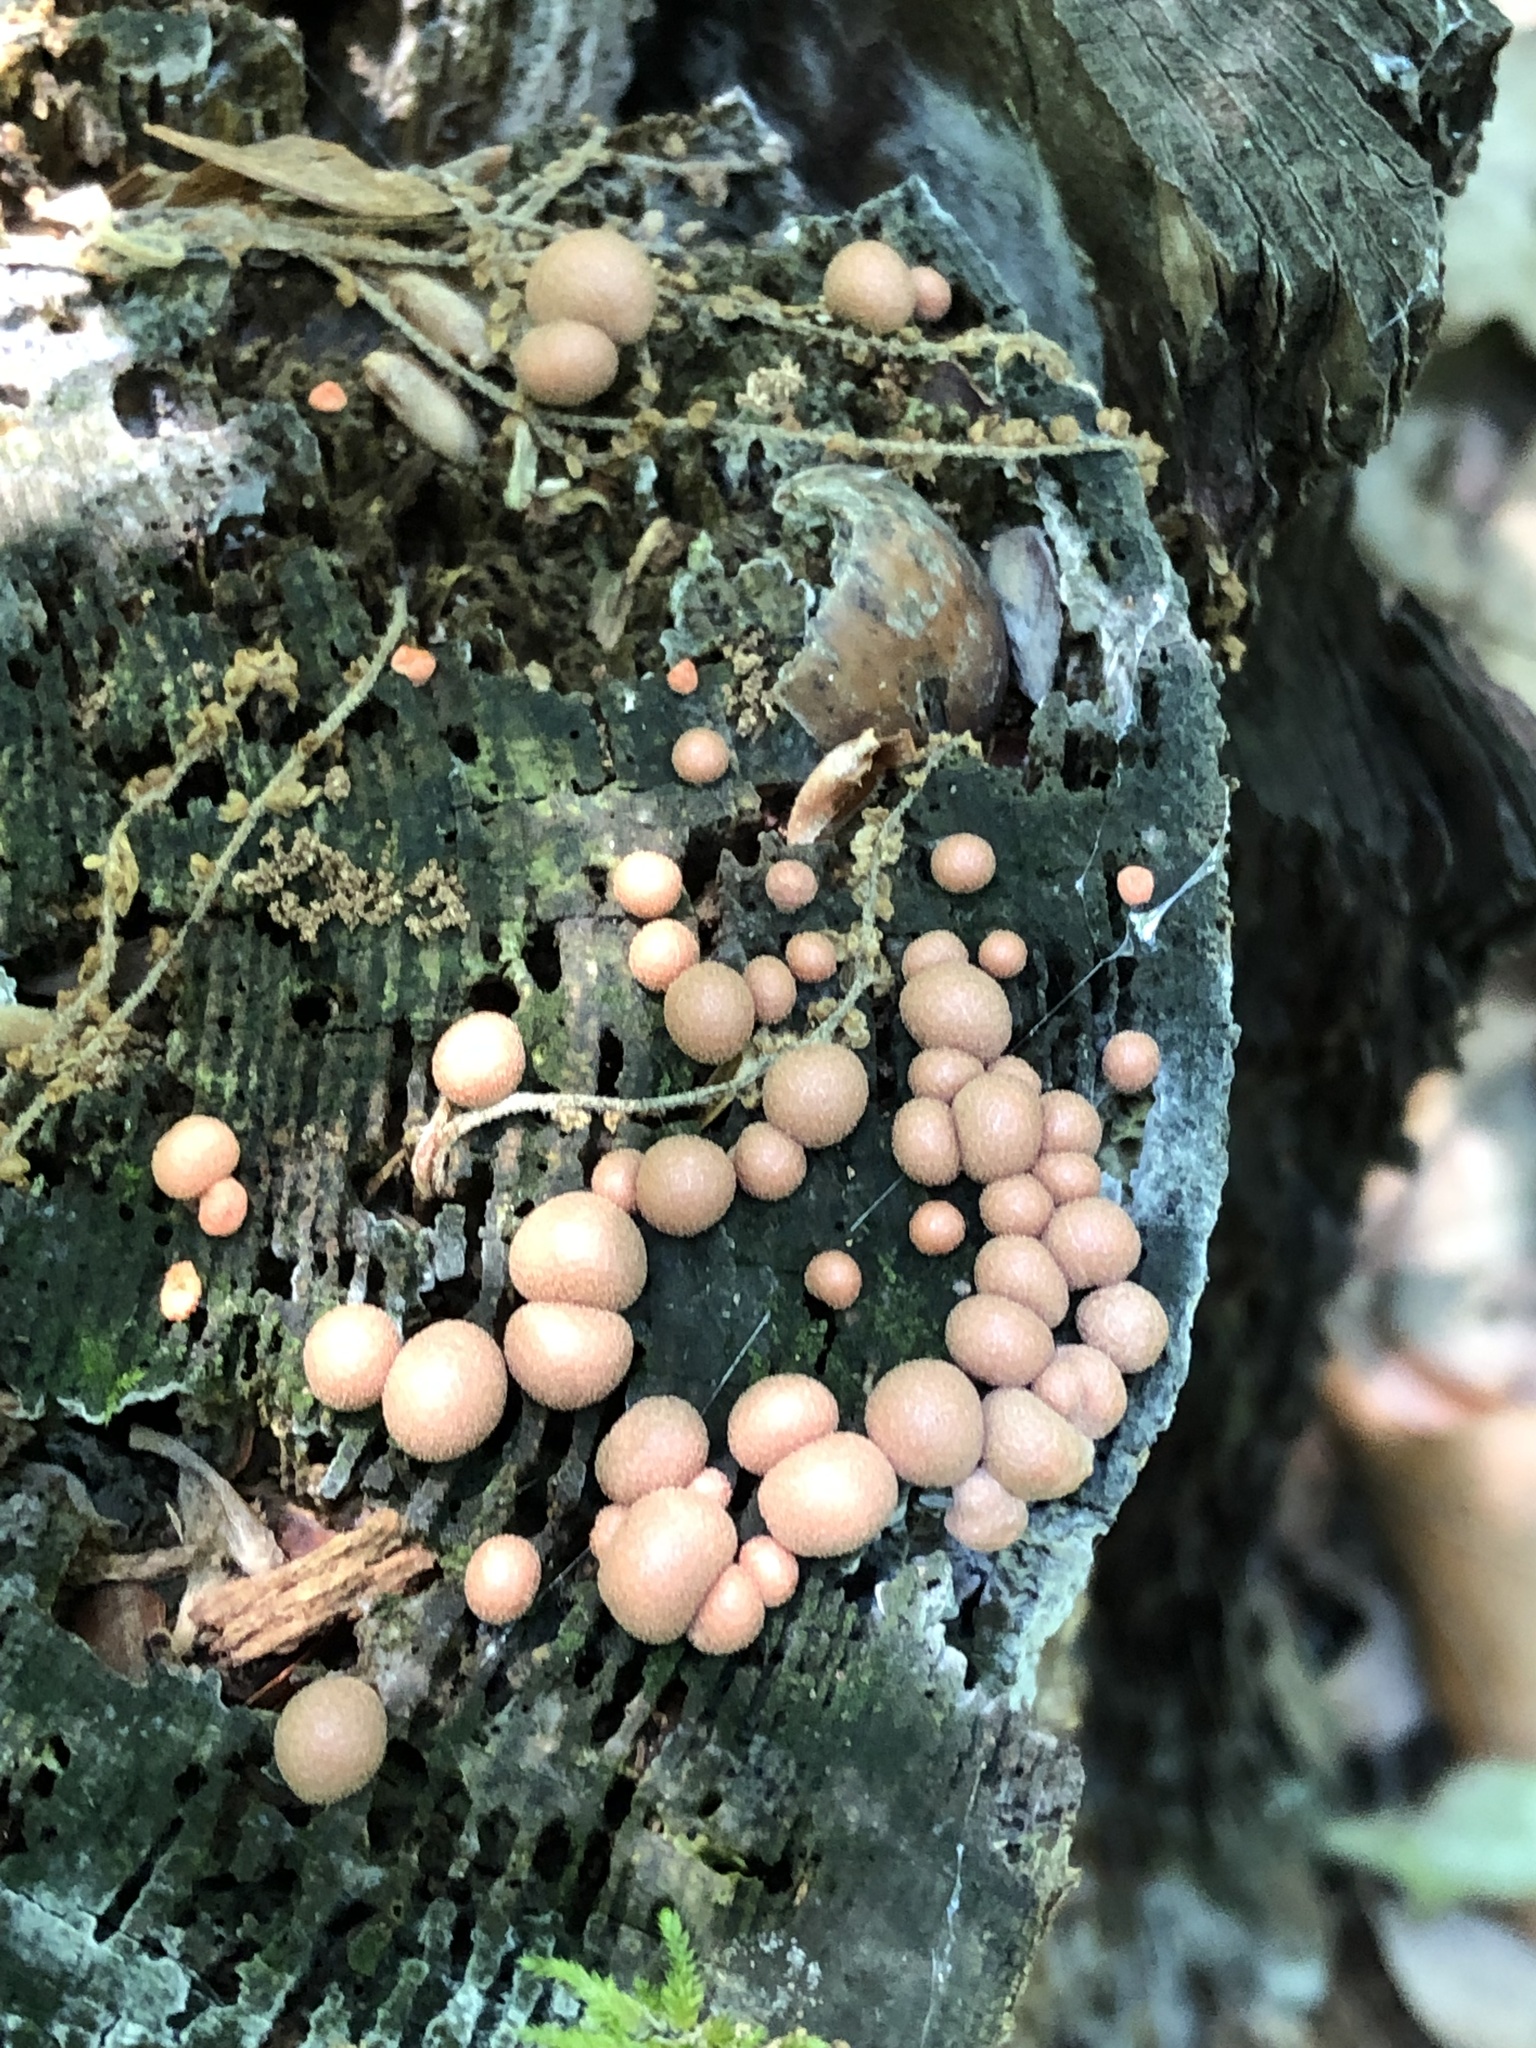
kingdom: Protozoa
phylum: Mycetozoa
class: Myxomycetes
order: Cribrariales
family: Tubiferaceae
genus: Lycogala
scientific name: Lycogala epidendrum
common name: Wolf's milk
